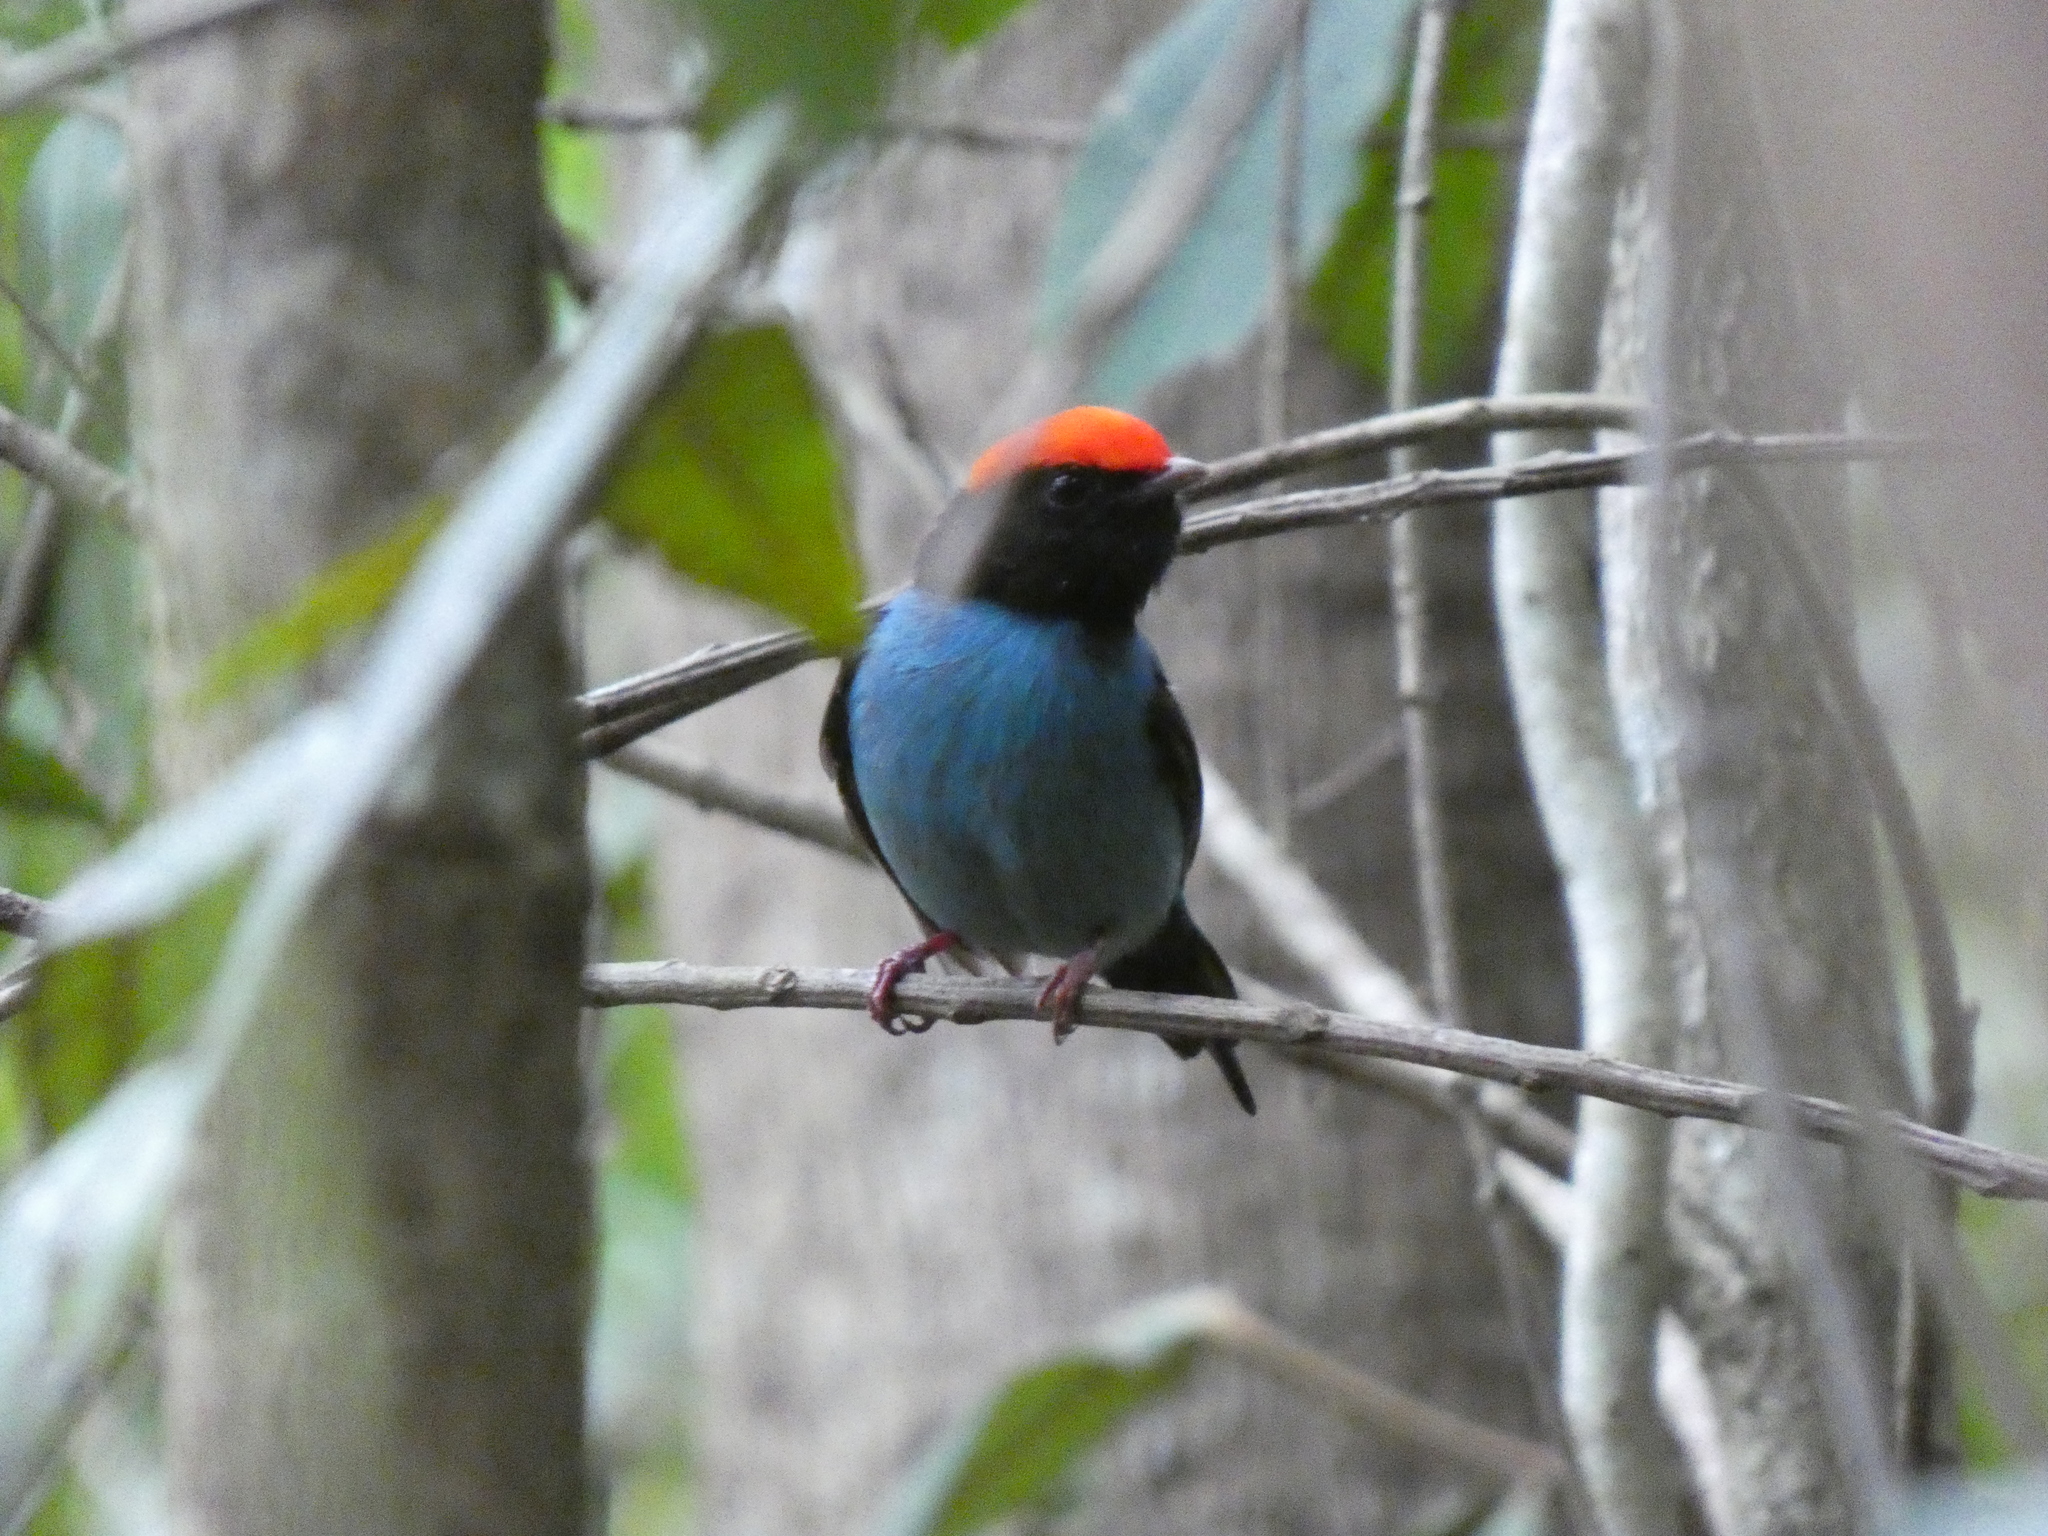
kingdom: Animalia
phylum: Chordata
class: Aves
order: Passeriformes
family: Pipridae
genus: Chiroxiphia
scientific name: Chiroxiphia caudata
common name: Blue manakin
